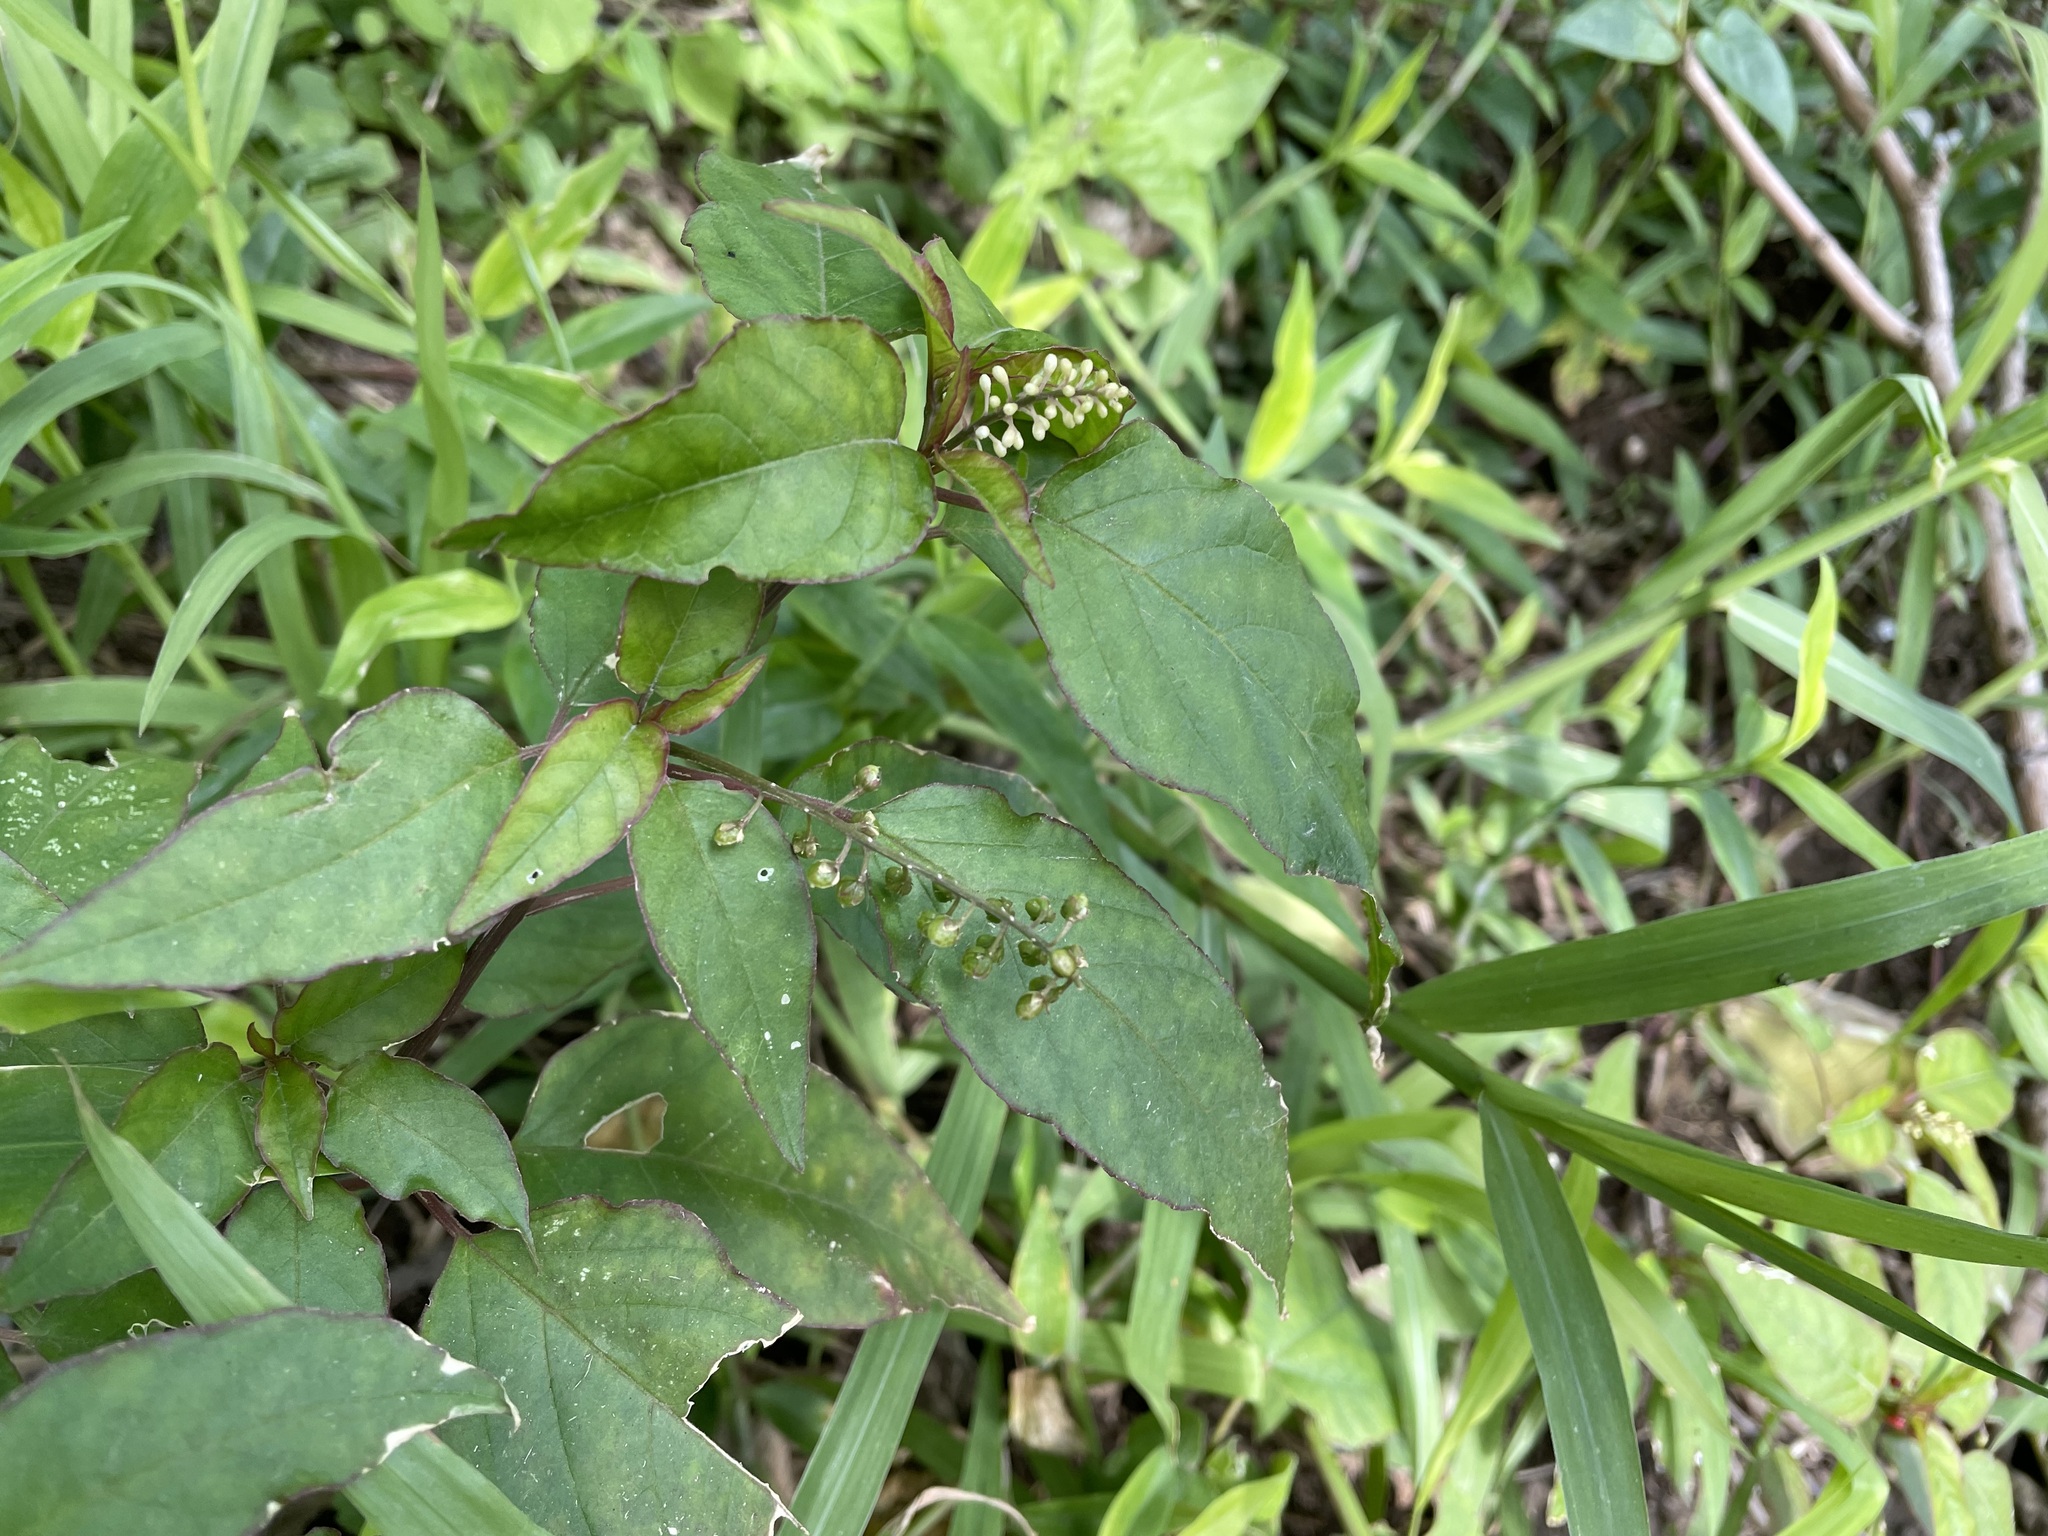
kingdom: Plantae
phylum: Tracheophyta
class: Magnoliopsida
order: Caryophyllales
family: Phytolaccaceae
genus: Rivina
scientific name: Rivina humilis
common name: Rougeplant
